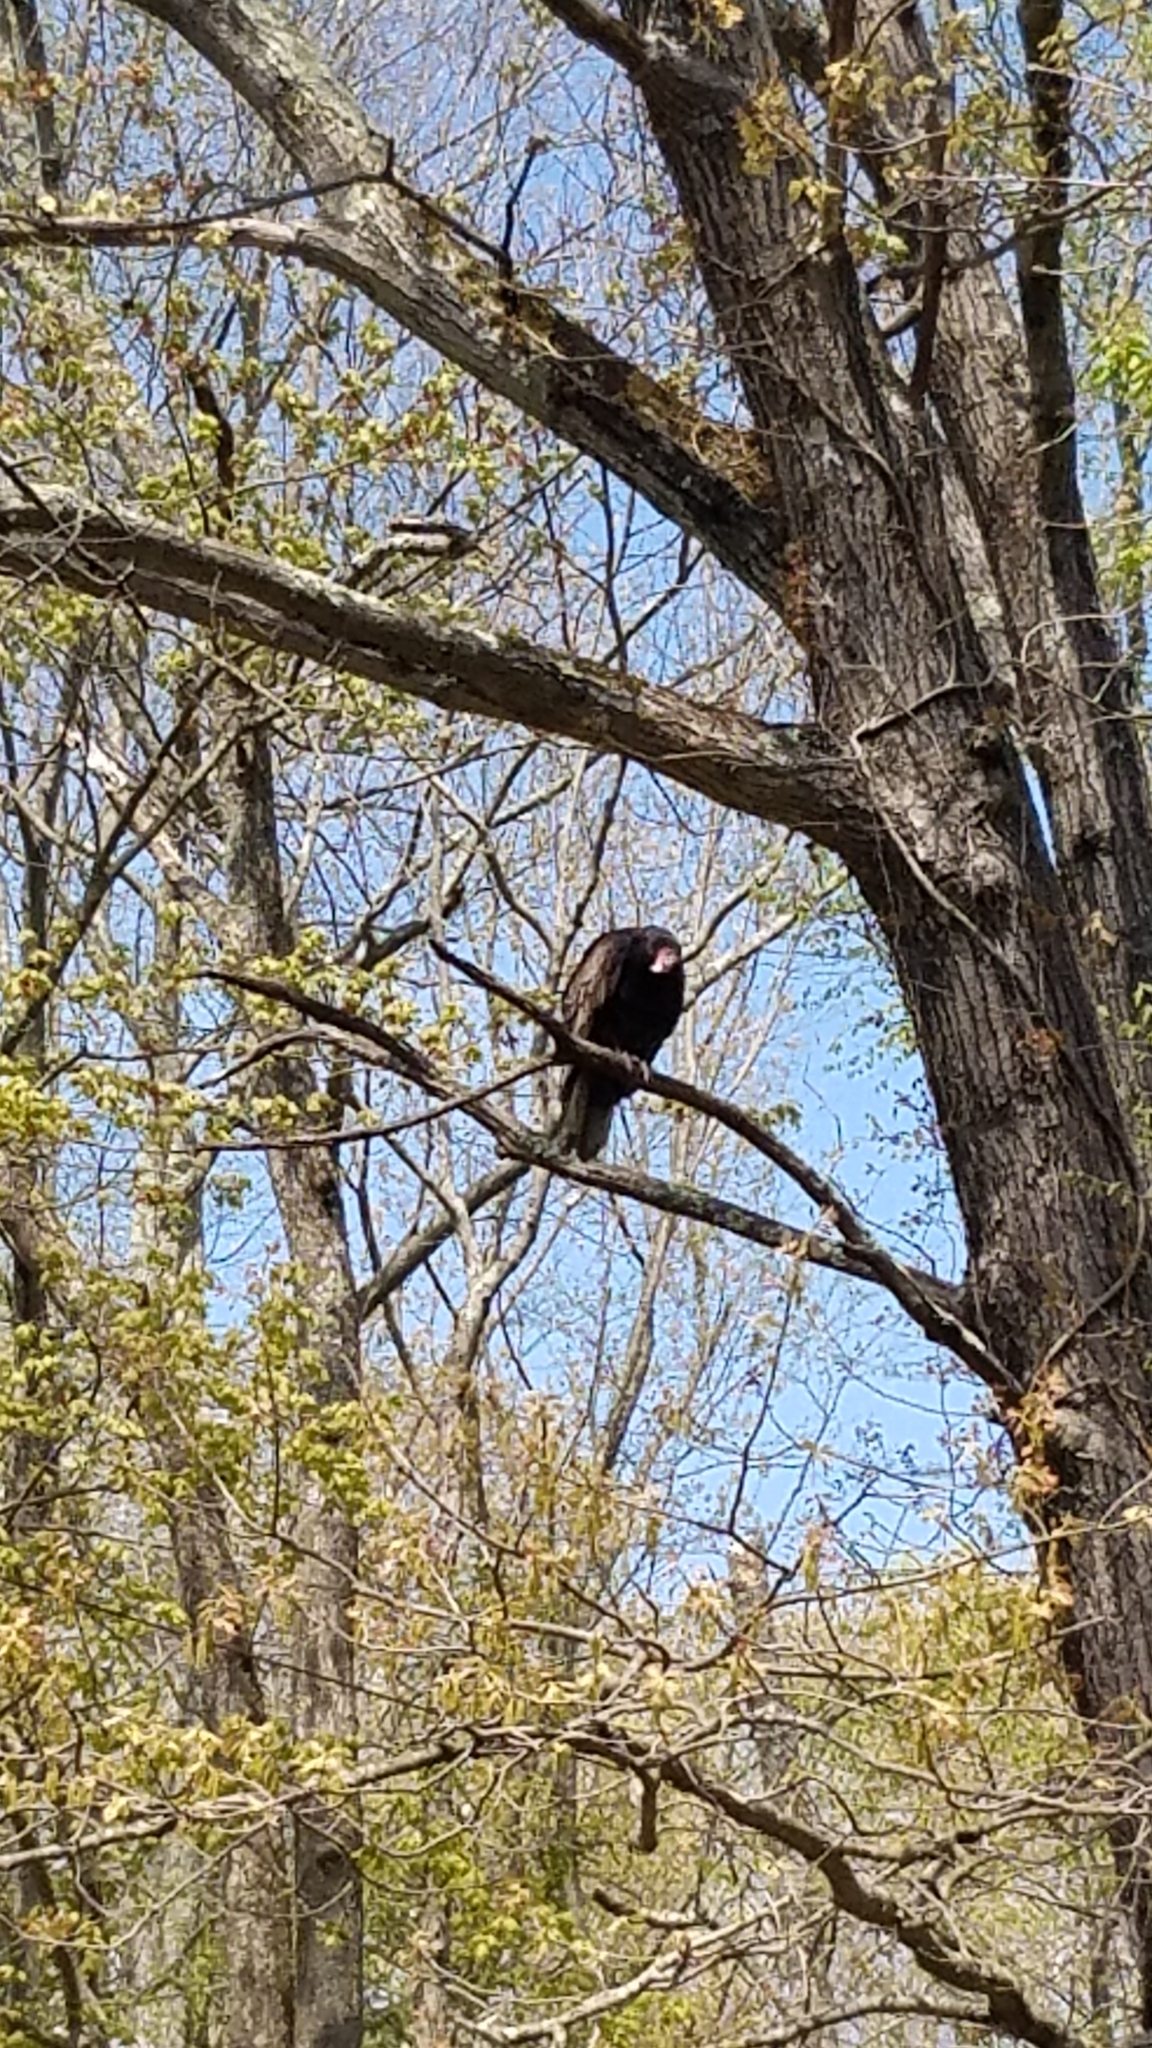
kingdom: Animalia
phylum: Chordata
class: Aves
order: Accipitriformes
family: Cathartidae
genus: Cathartes
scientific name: Cathartes aura
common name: Turkey vulture
